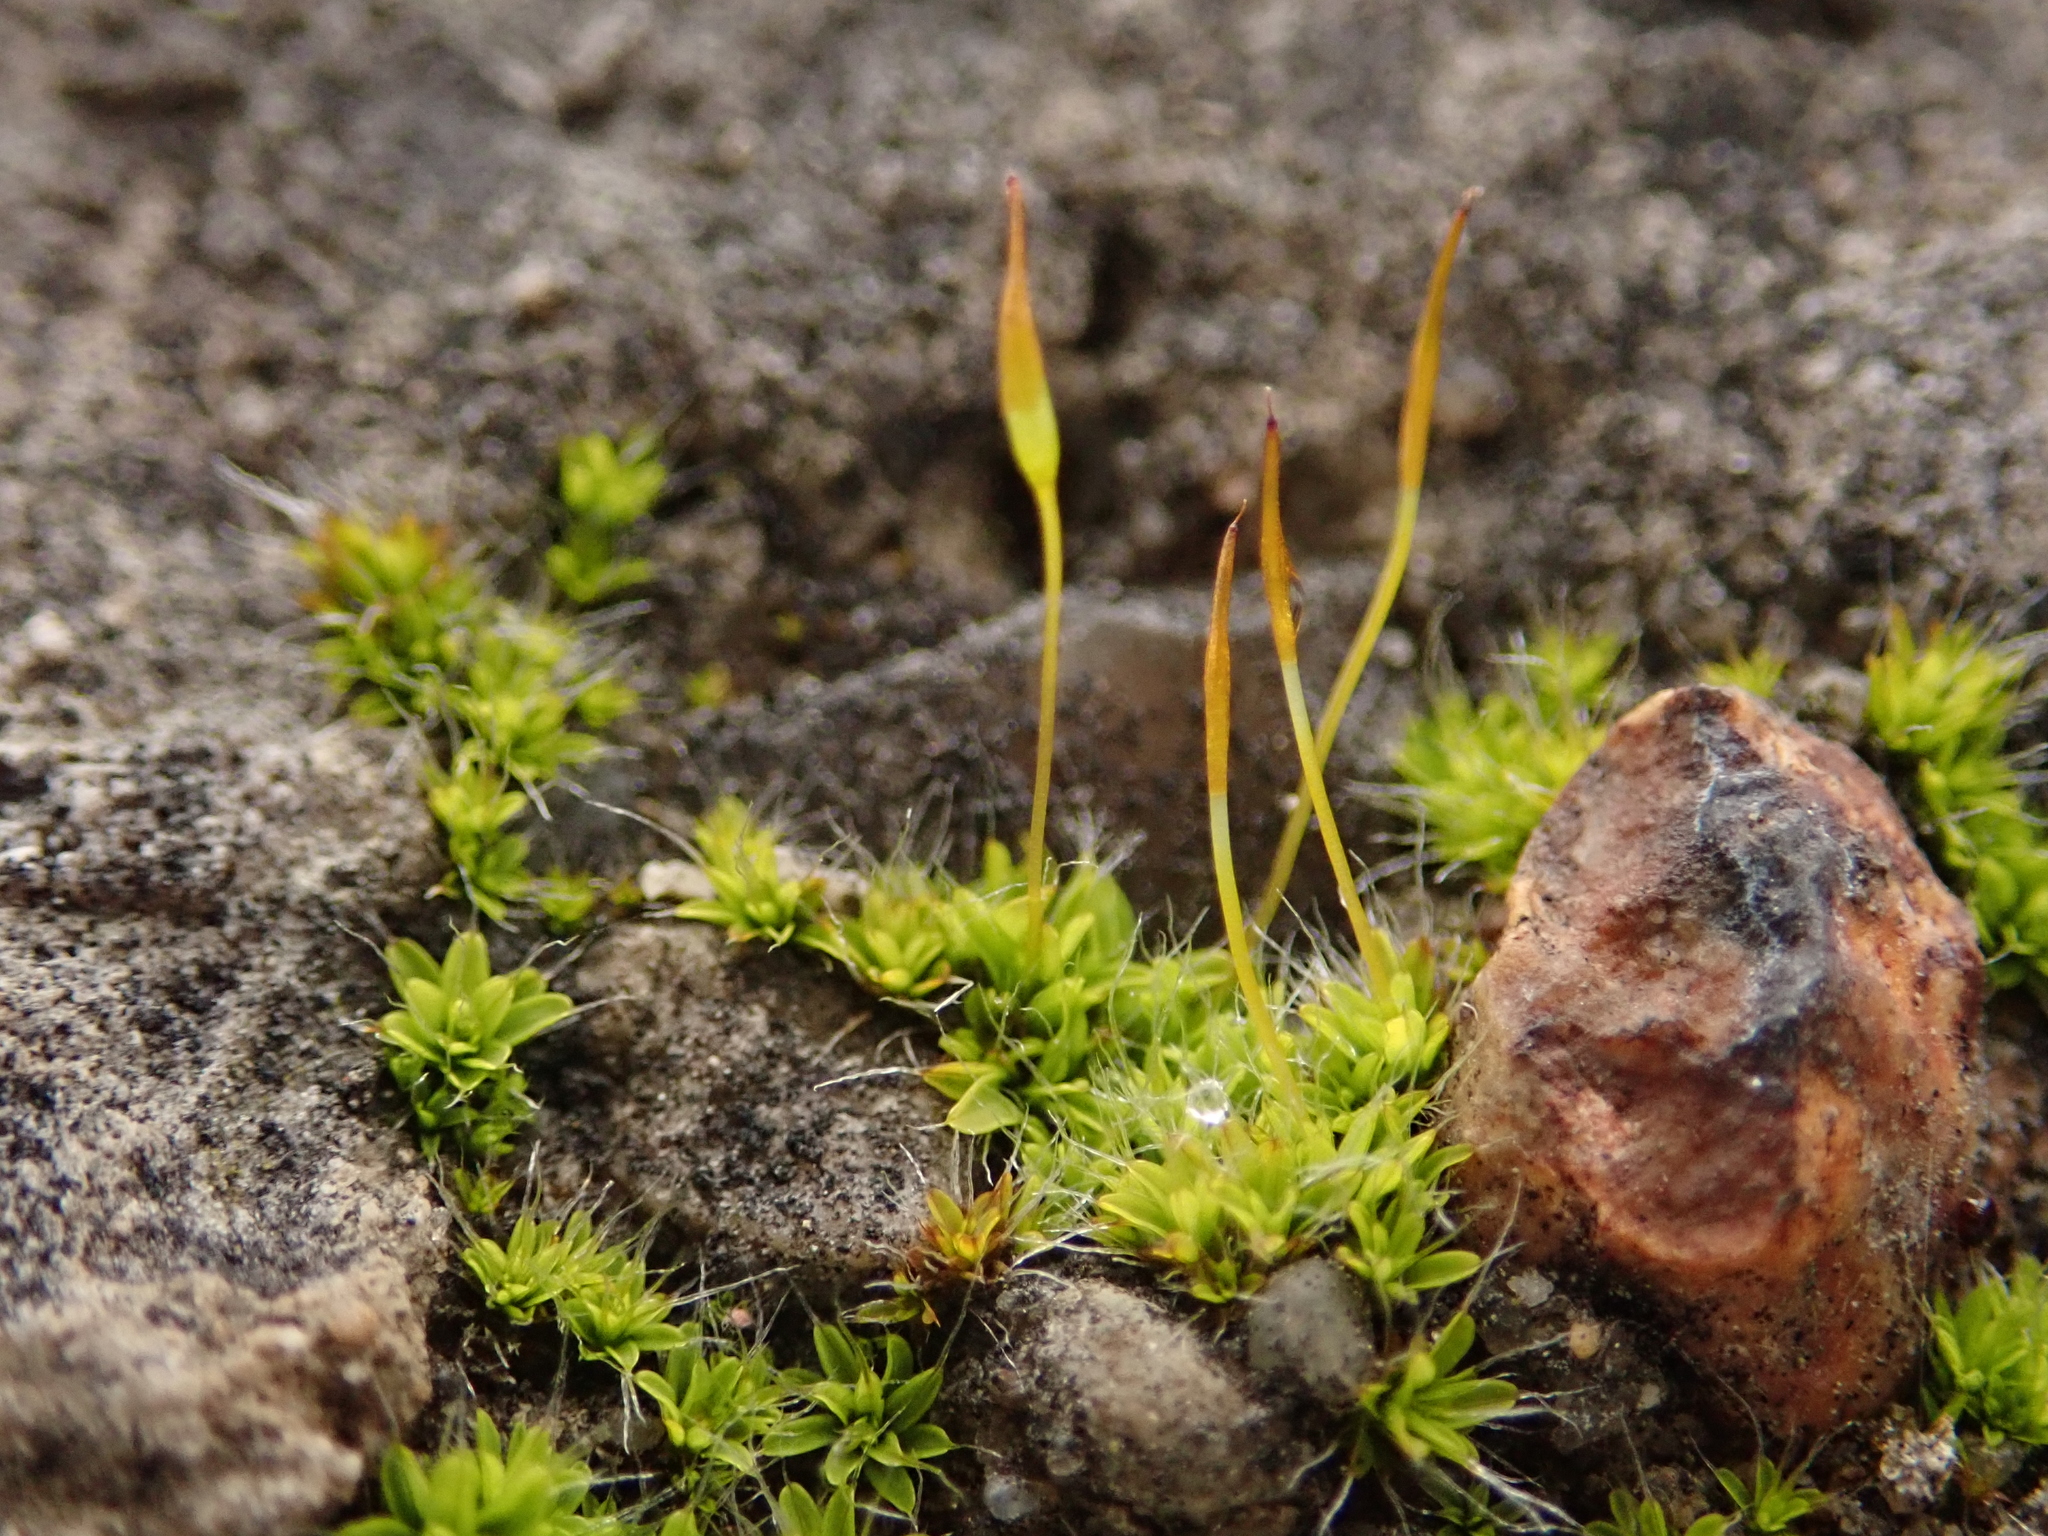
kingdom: Plantae
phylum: Bryophyta
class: Bryopsida
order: Pottiales
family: Pottiaceae
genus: Tortula
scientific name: Tortula muralis
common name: Wall screw-moss
